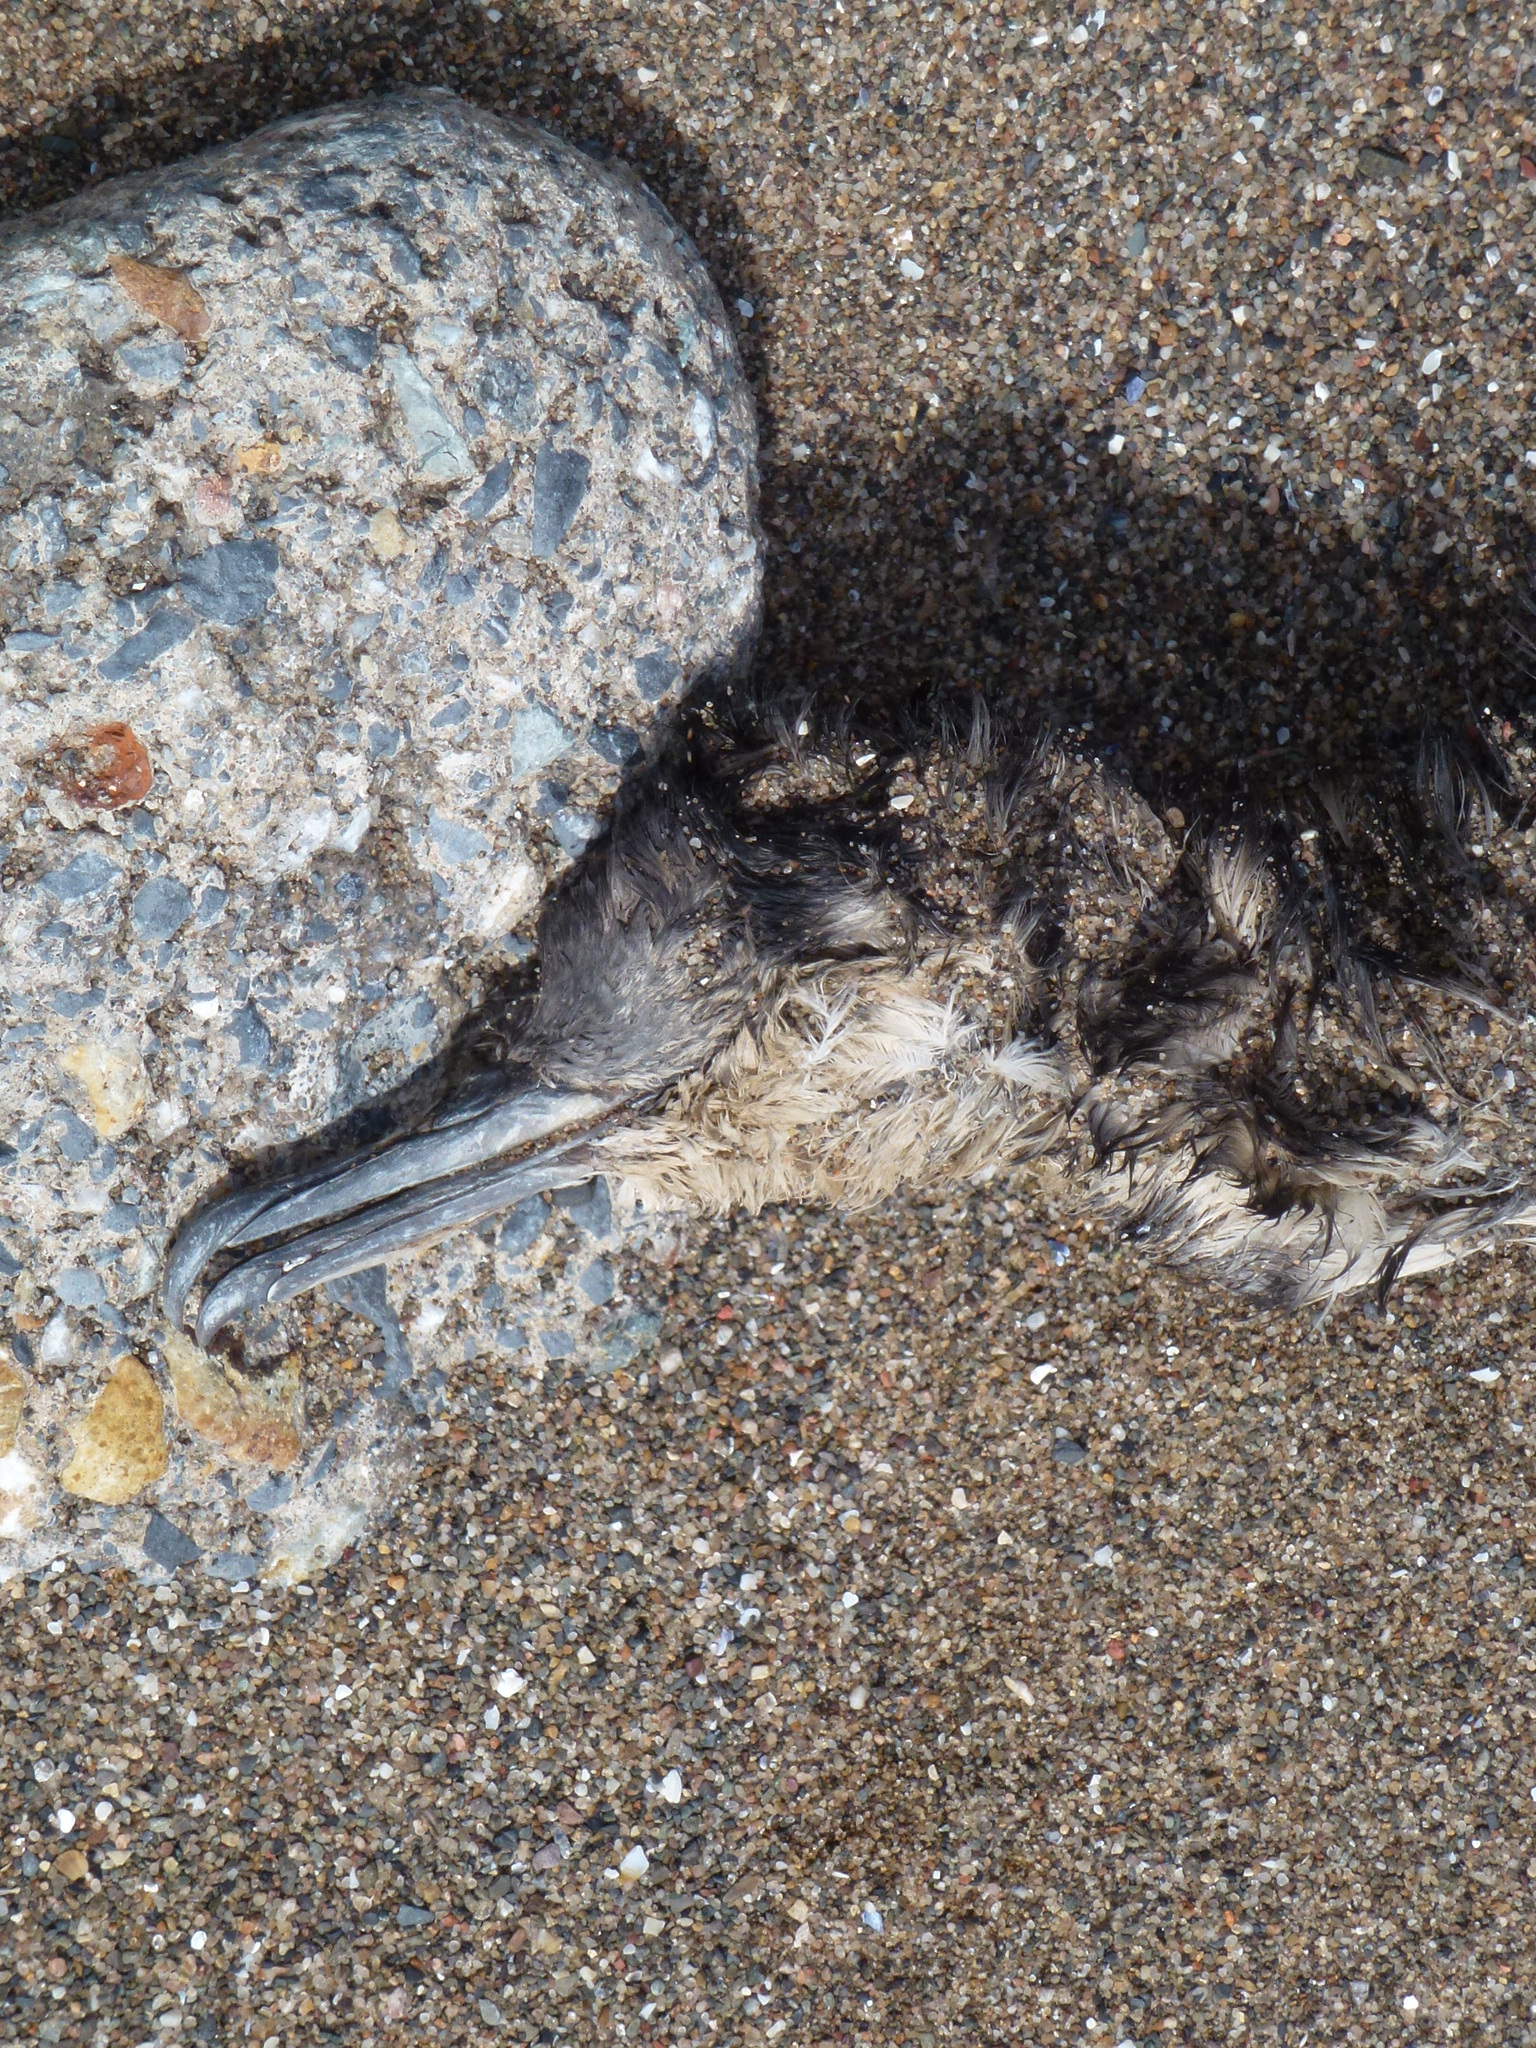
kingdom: Animalia
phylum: Chordata
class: Aves
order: Procellariiformes
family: Procellariidae
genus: Puffinus
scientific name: Puffinus puffinus
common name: Manx shearwater
